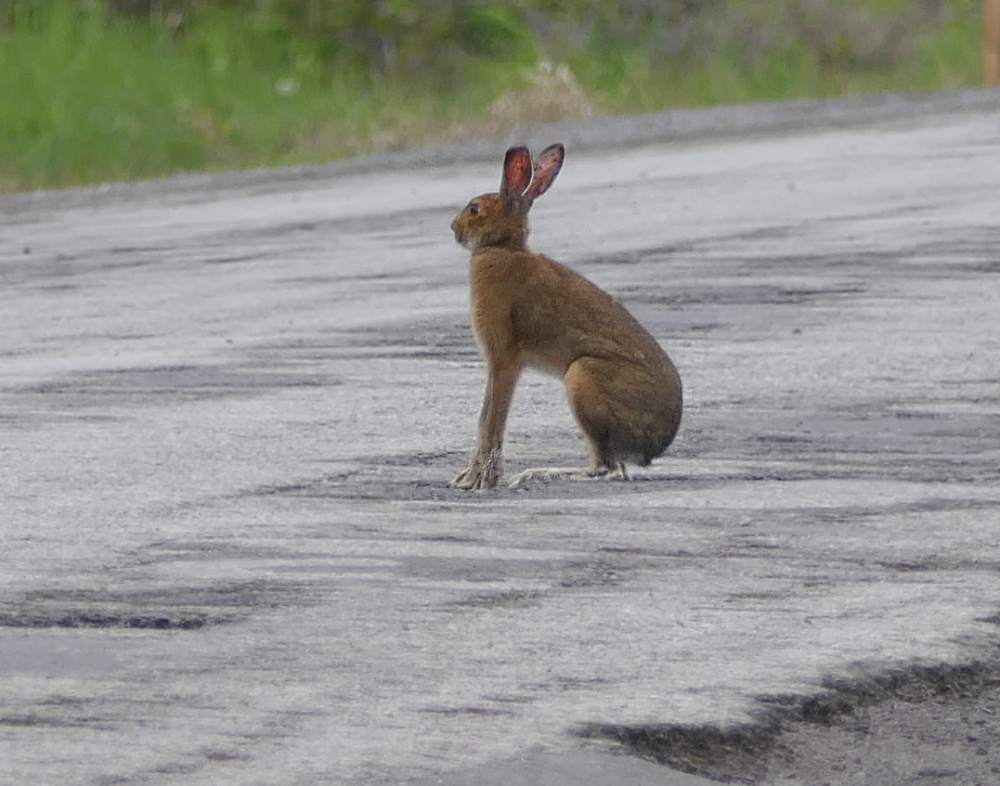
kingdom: Animalia
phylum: Chordata
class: Mammalia
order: Lagomorpha
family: Leporidae
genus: Lepus
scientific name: Lepus americanus
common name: Snowshoe hare
